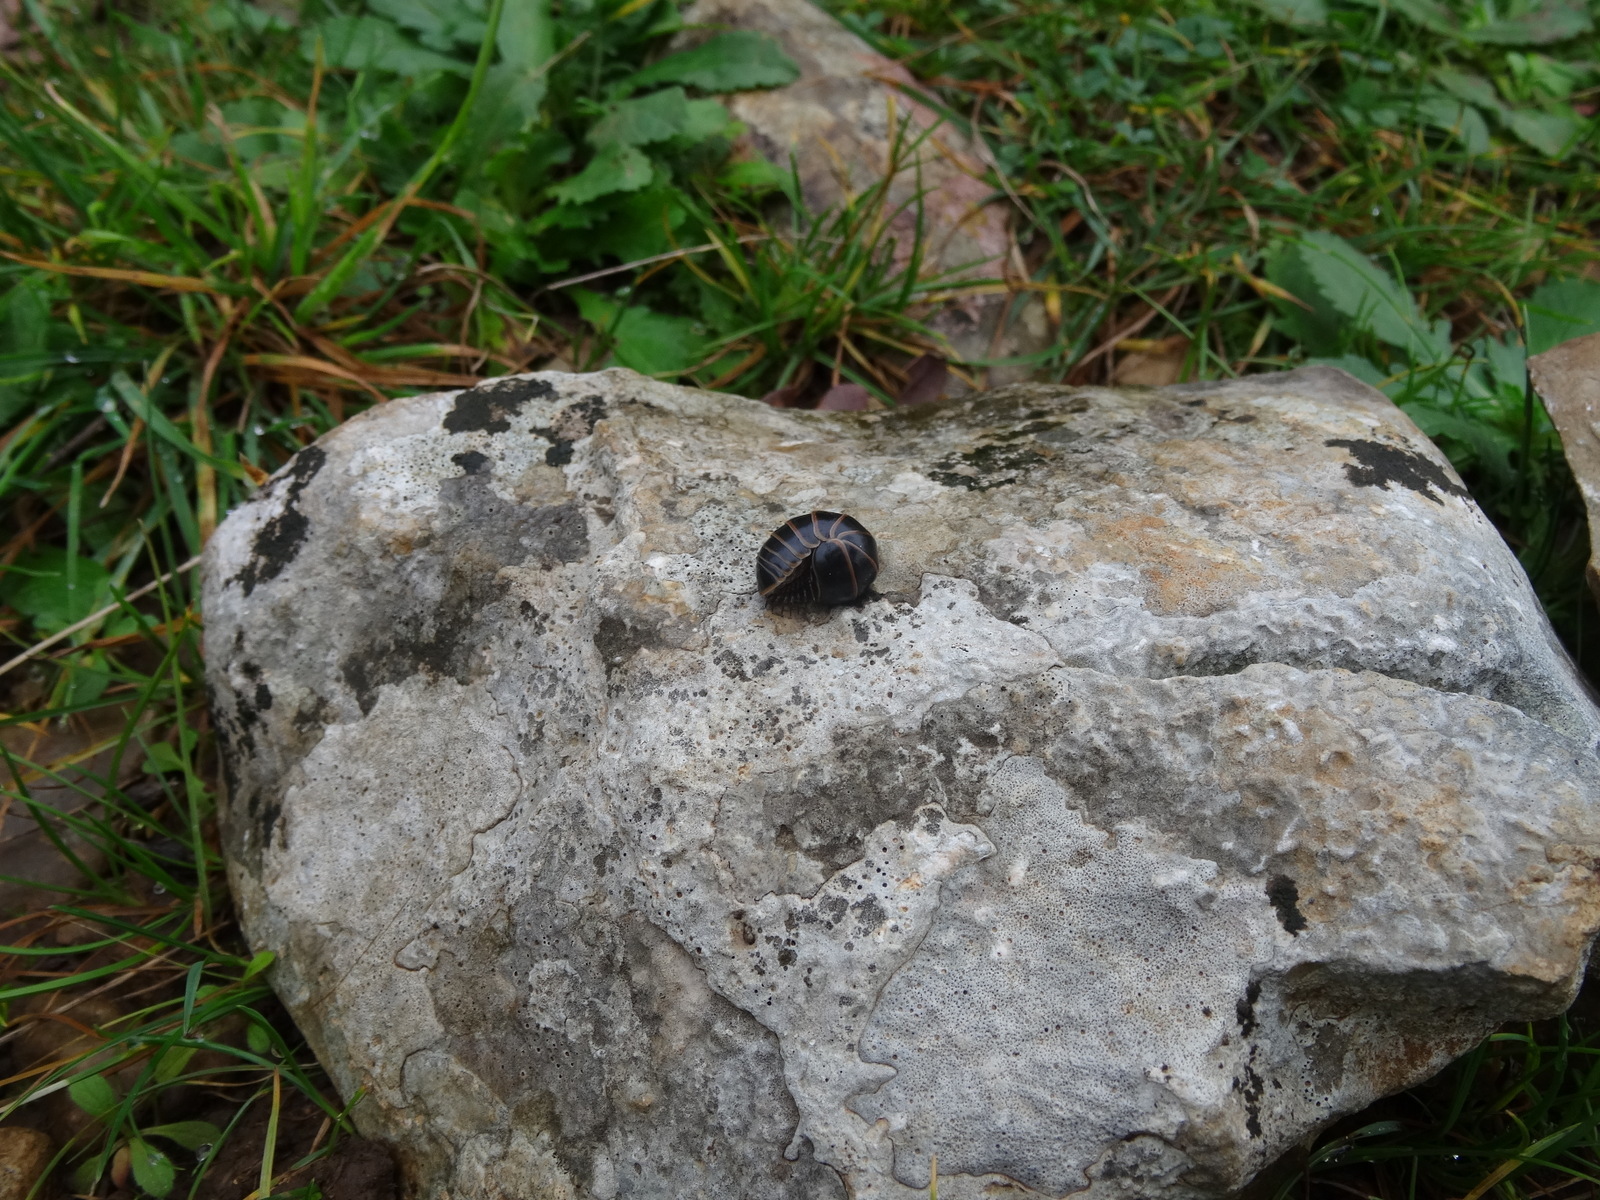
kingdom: Animalia
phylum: Arthropoda
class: Diplopoda
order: Glomerida
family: Glomeridae
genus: Glomeris
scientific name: Glomeris marginata
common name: Bordered pill millipede
